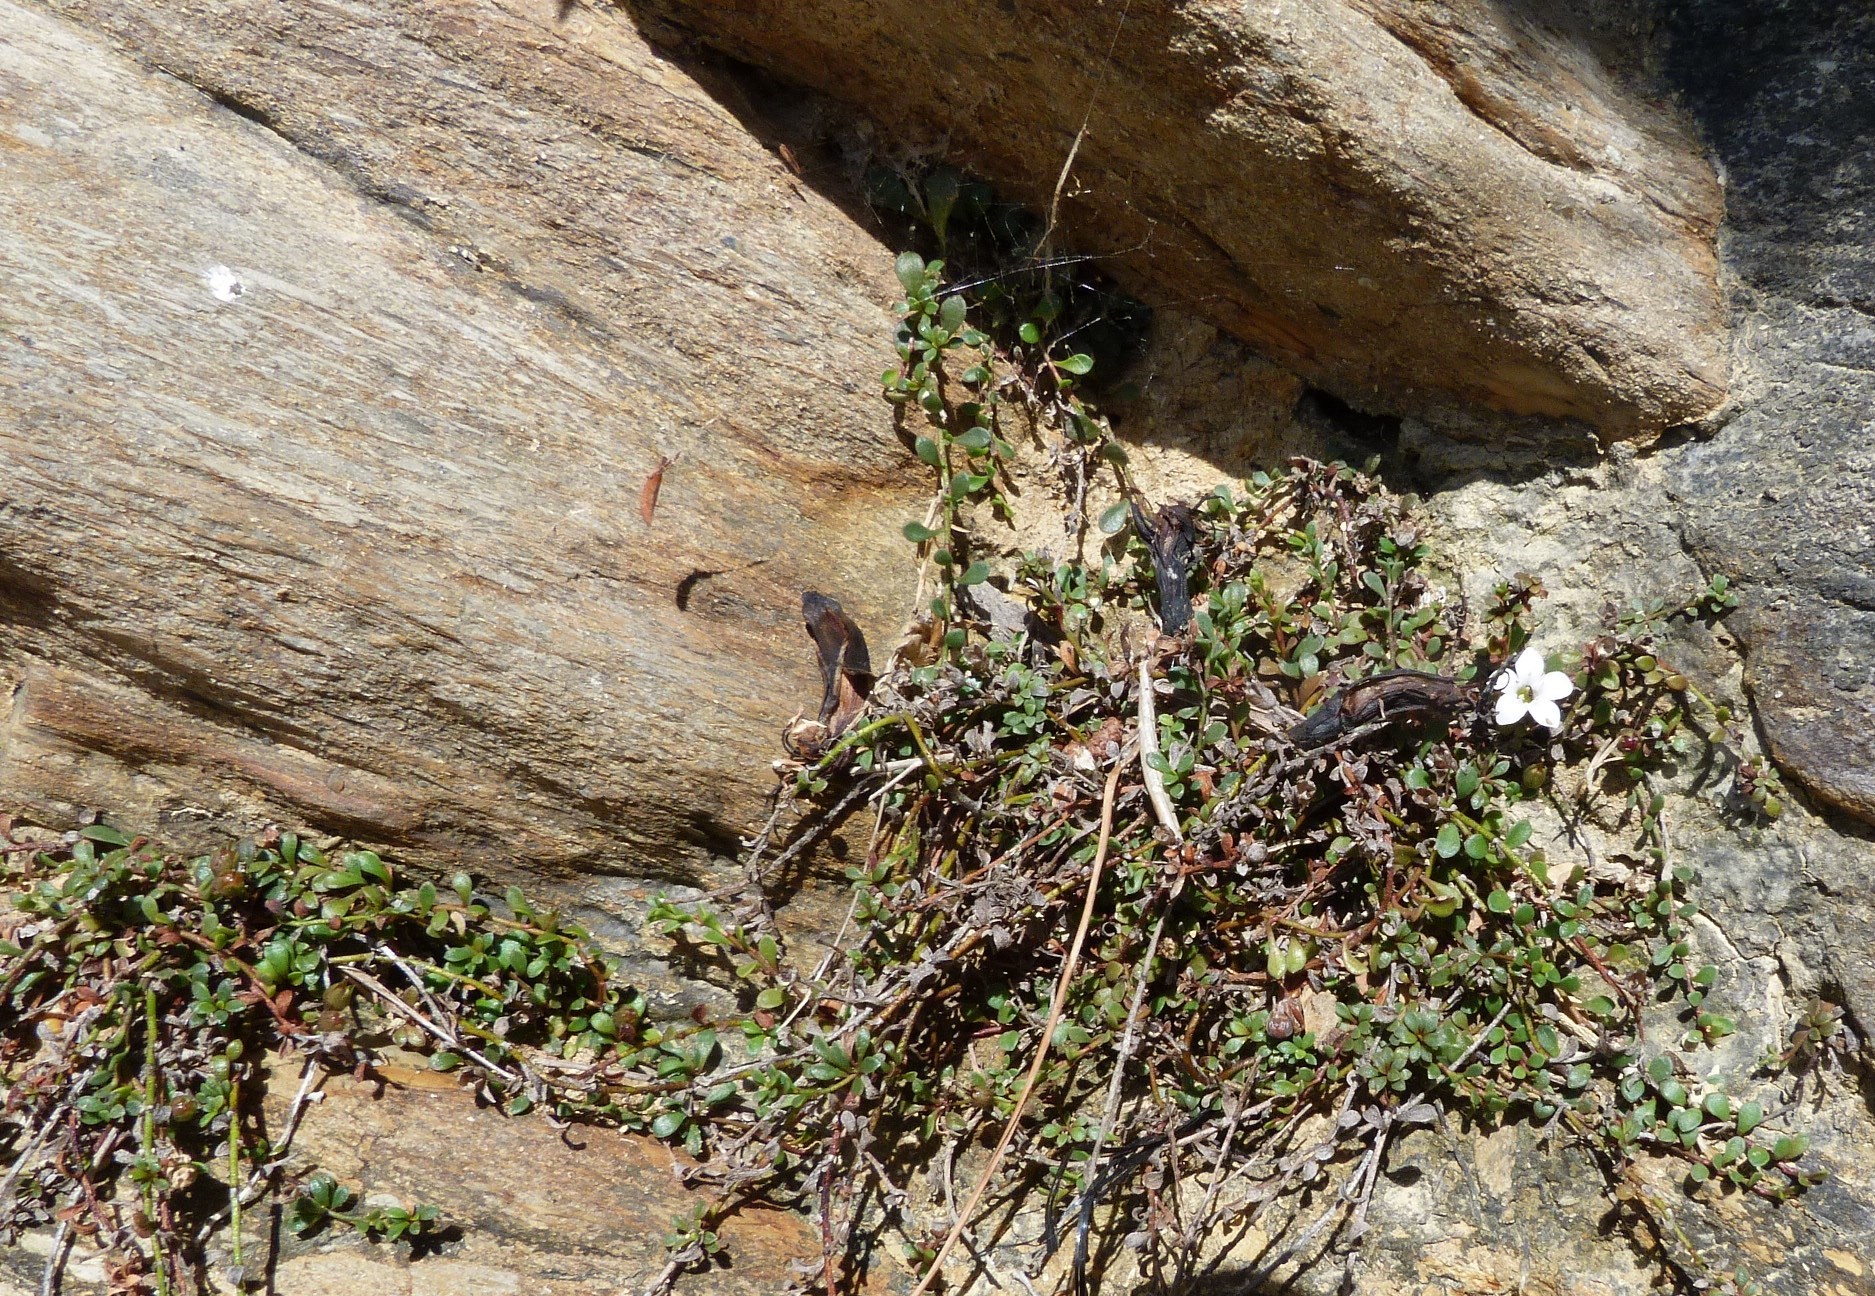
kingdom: Plantae
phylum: Tracheophyta
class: Magnoliopsida
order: Ericales
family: Primulaceae
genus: Samolus
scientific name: Samolus repens
